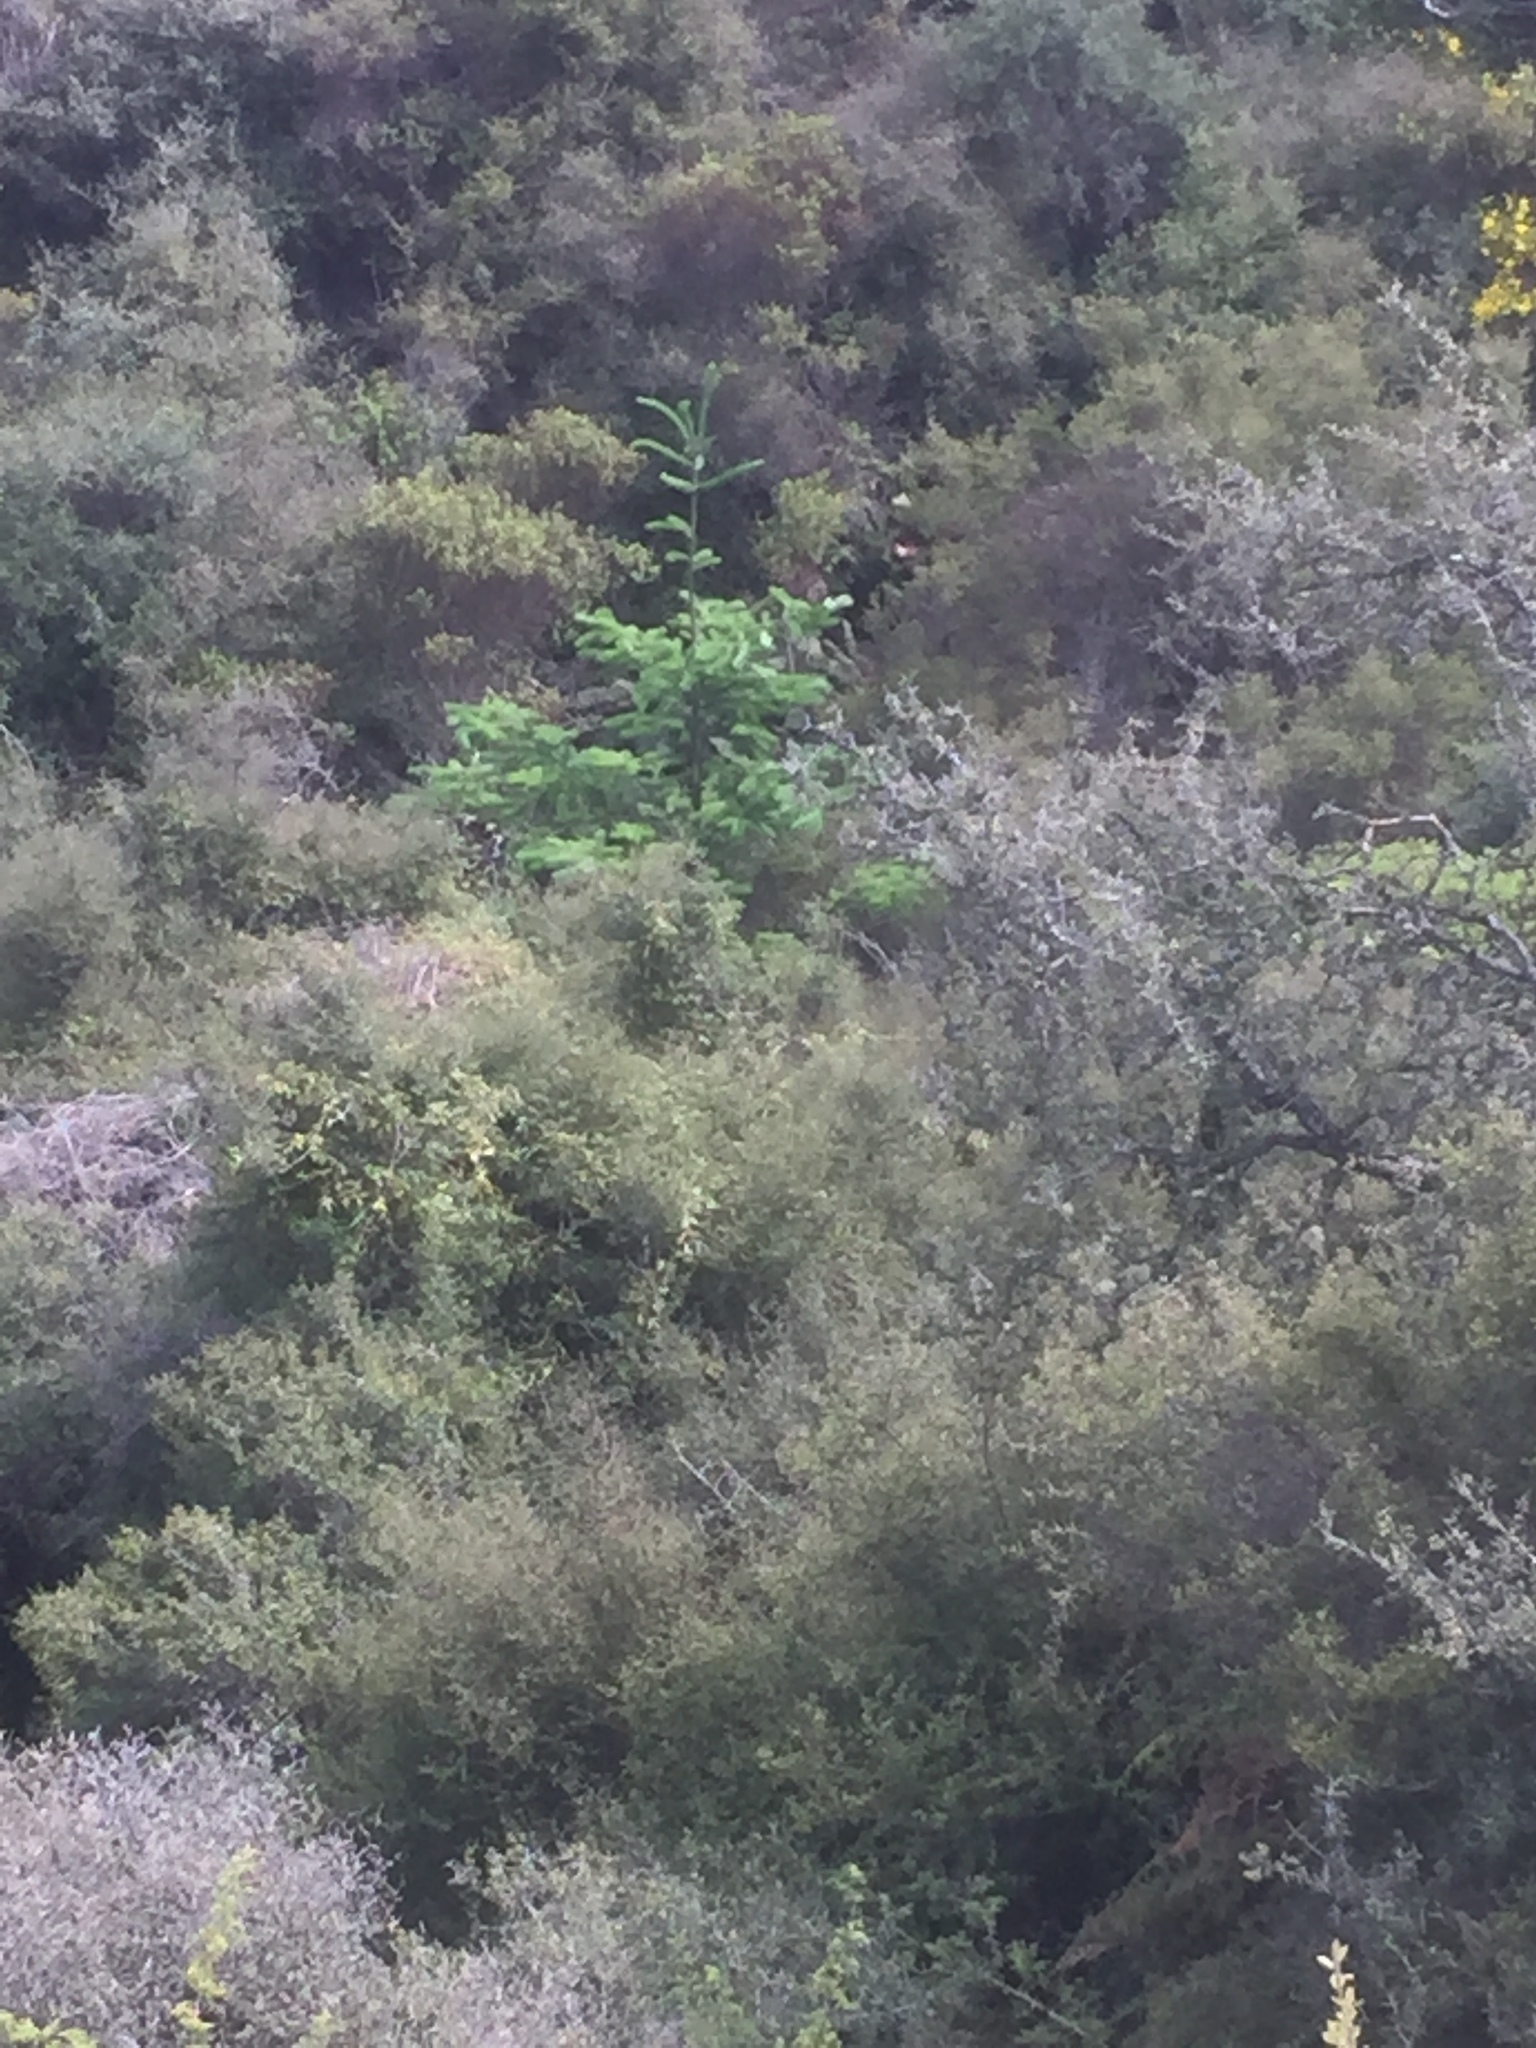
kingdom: Plantae
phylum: Tracheophyta
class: Pinopsida
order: Pinales
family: Pinaceae
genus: Pseudotsuga
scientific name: Pseudotsuga menziesii
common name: Douglas fir
